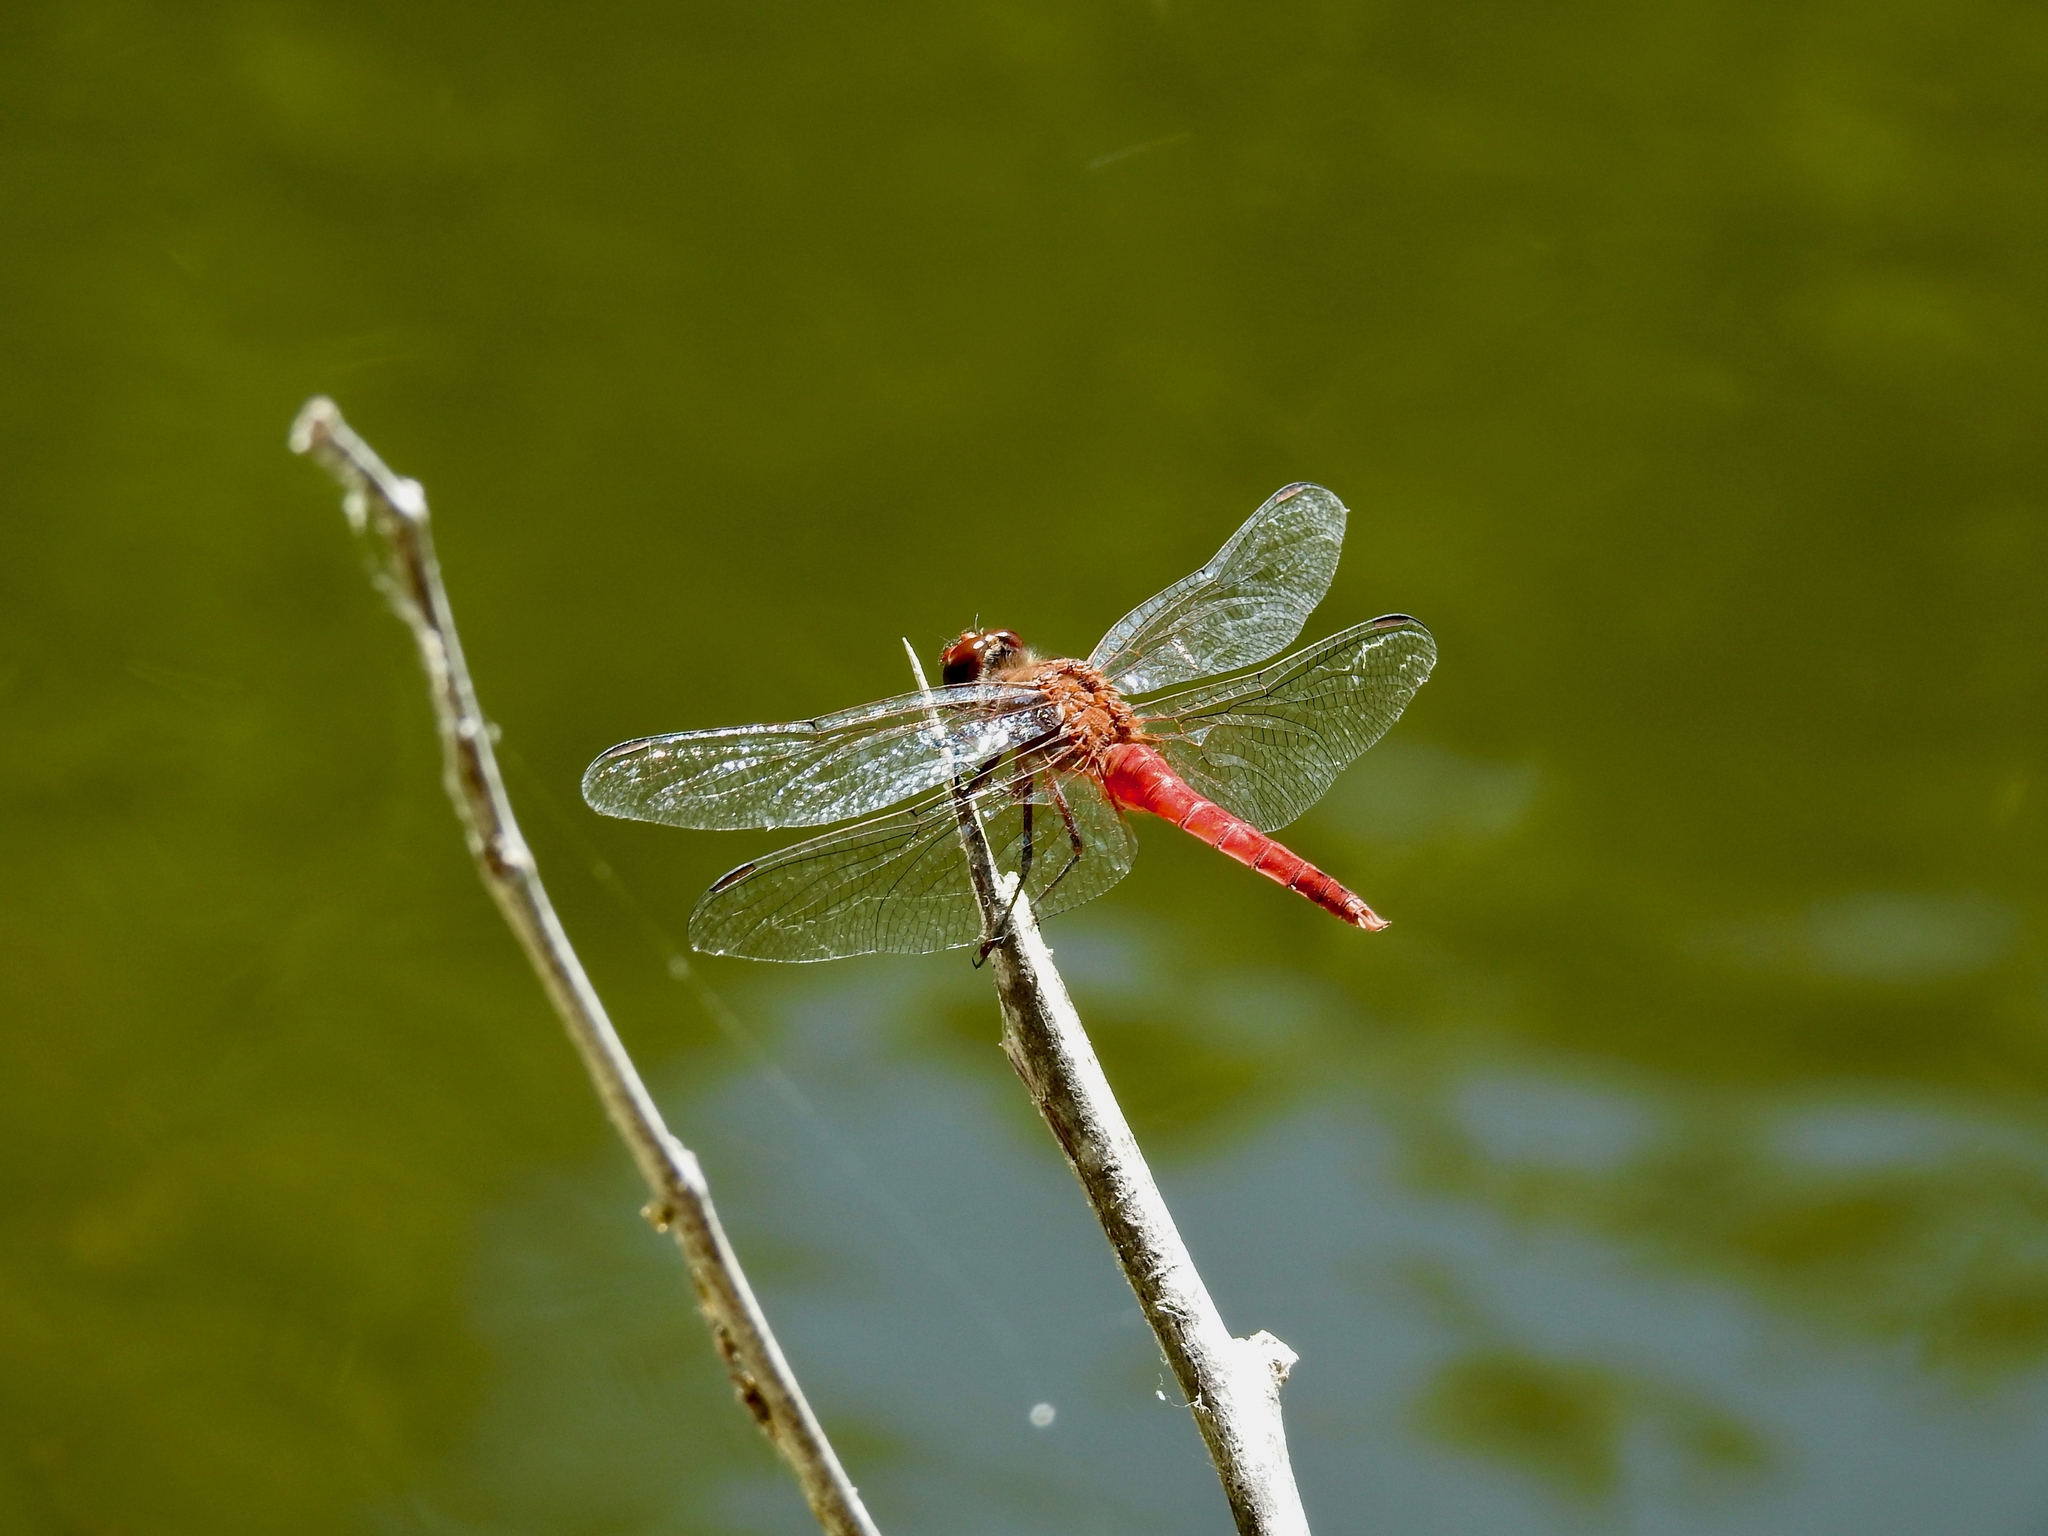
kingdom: Animalia
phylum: Arthropoda
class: Insecta
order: Odonata
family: Libellulidae
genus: Brachymesia
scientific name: Brachymesia furcata
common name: Red-taled pennant
